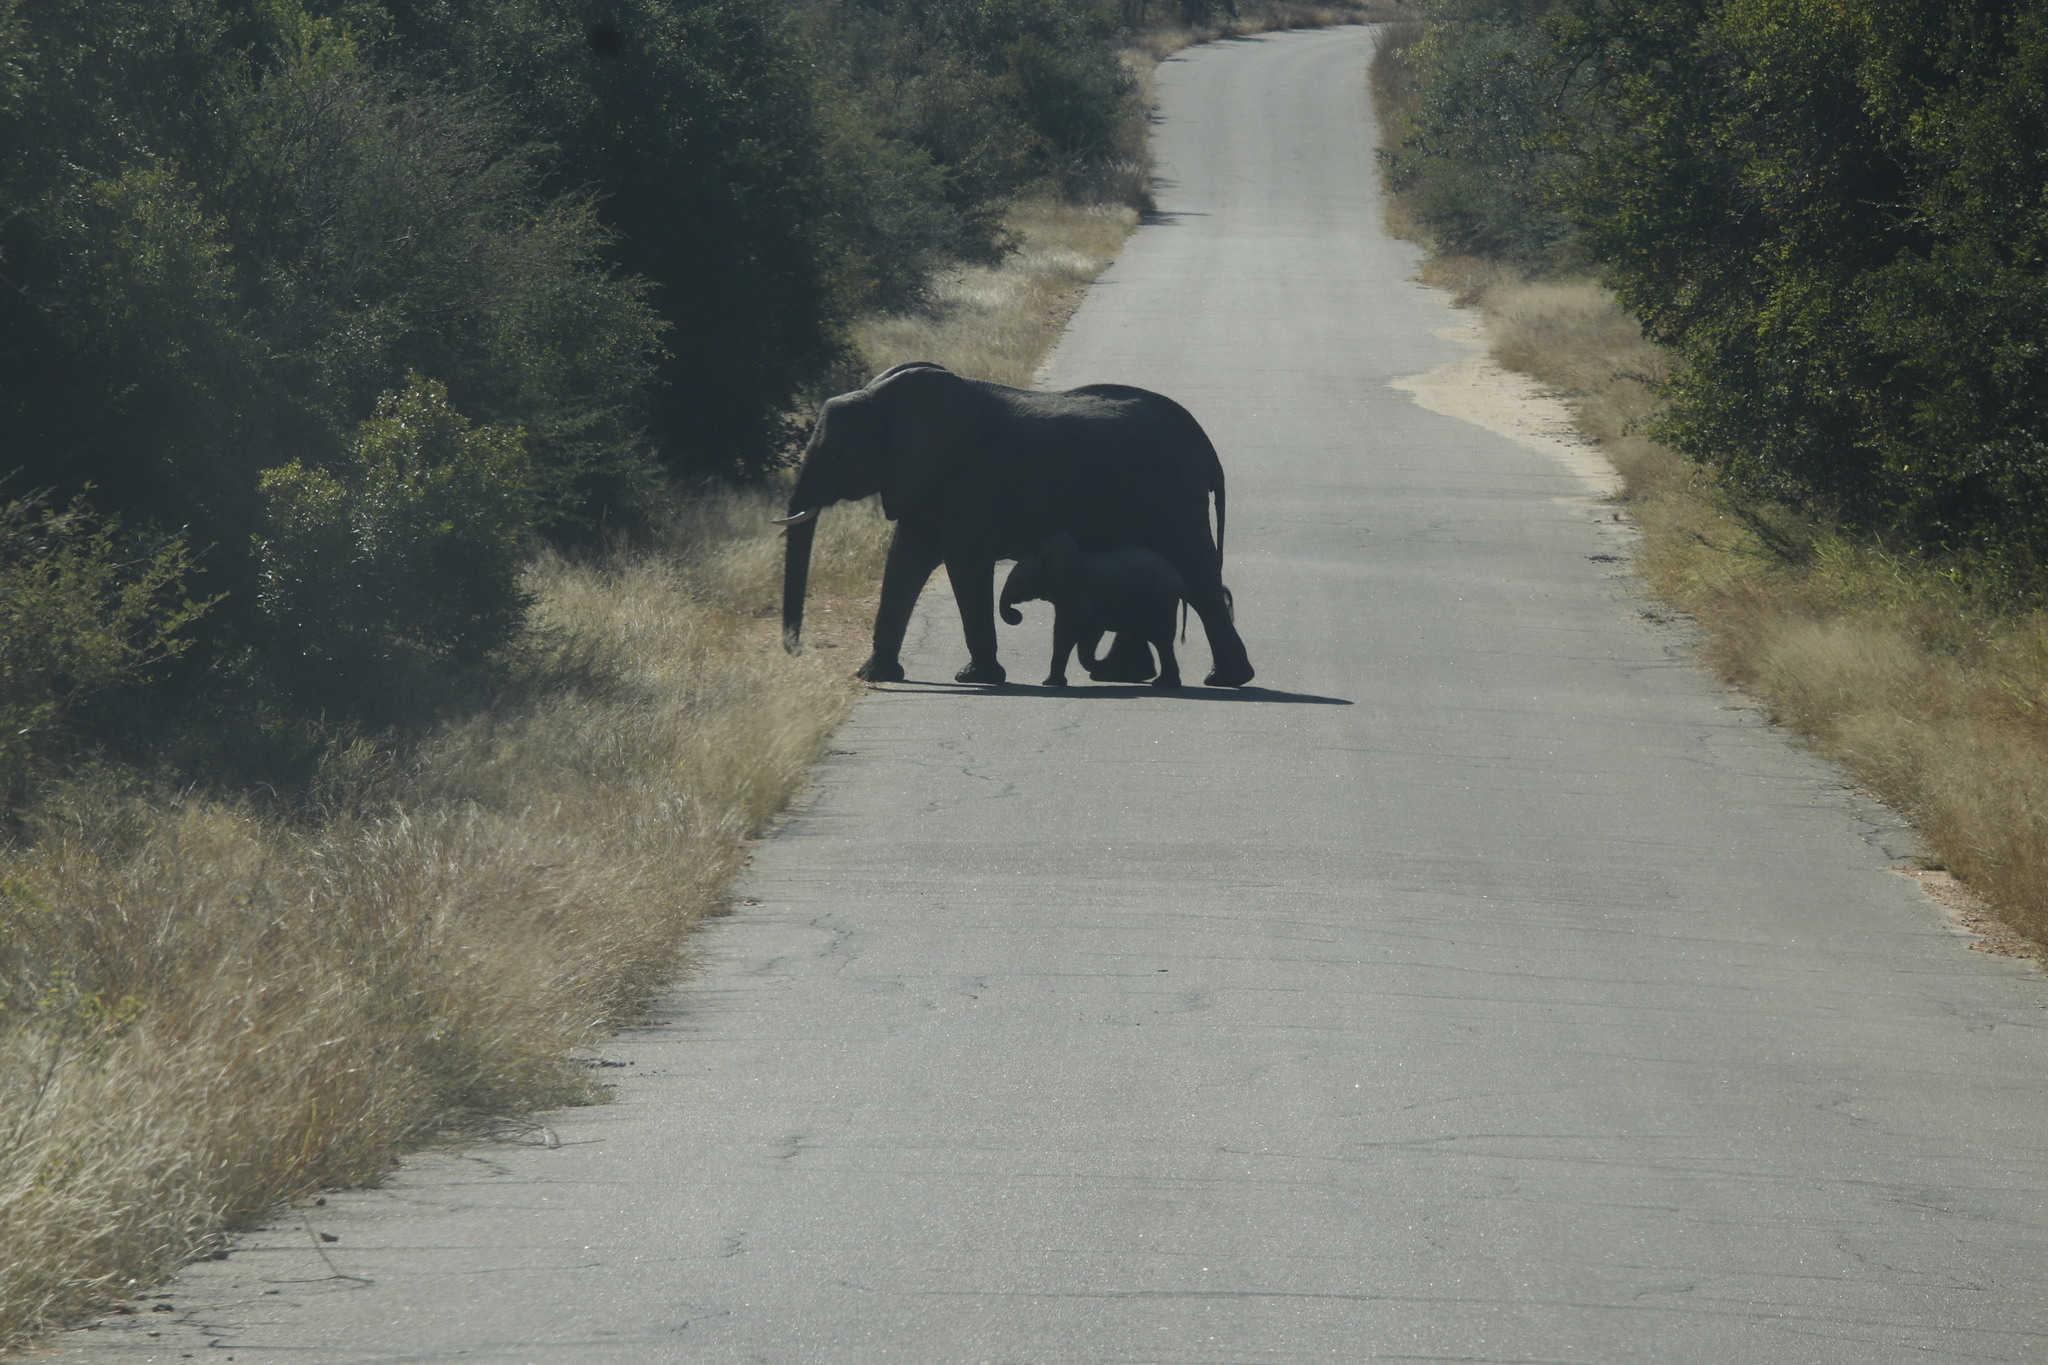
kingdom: Animalia
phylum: Chordata
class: Mammalia
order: Proboscidea
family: Elephantidae
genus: Loxodonta
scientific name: Loxodonta africana
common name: African elephant
